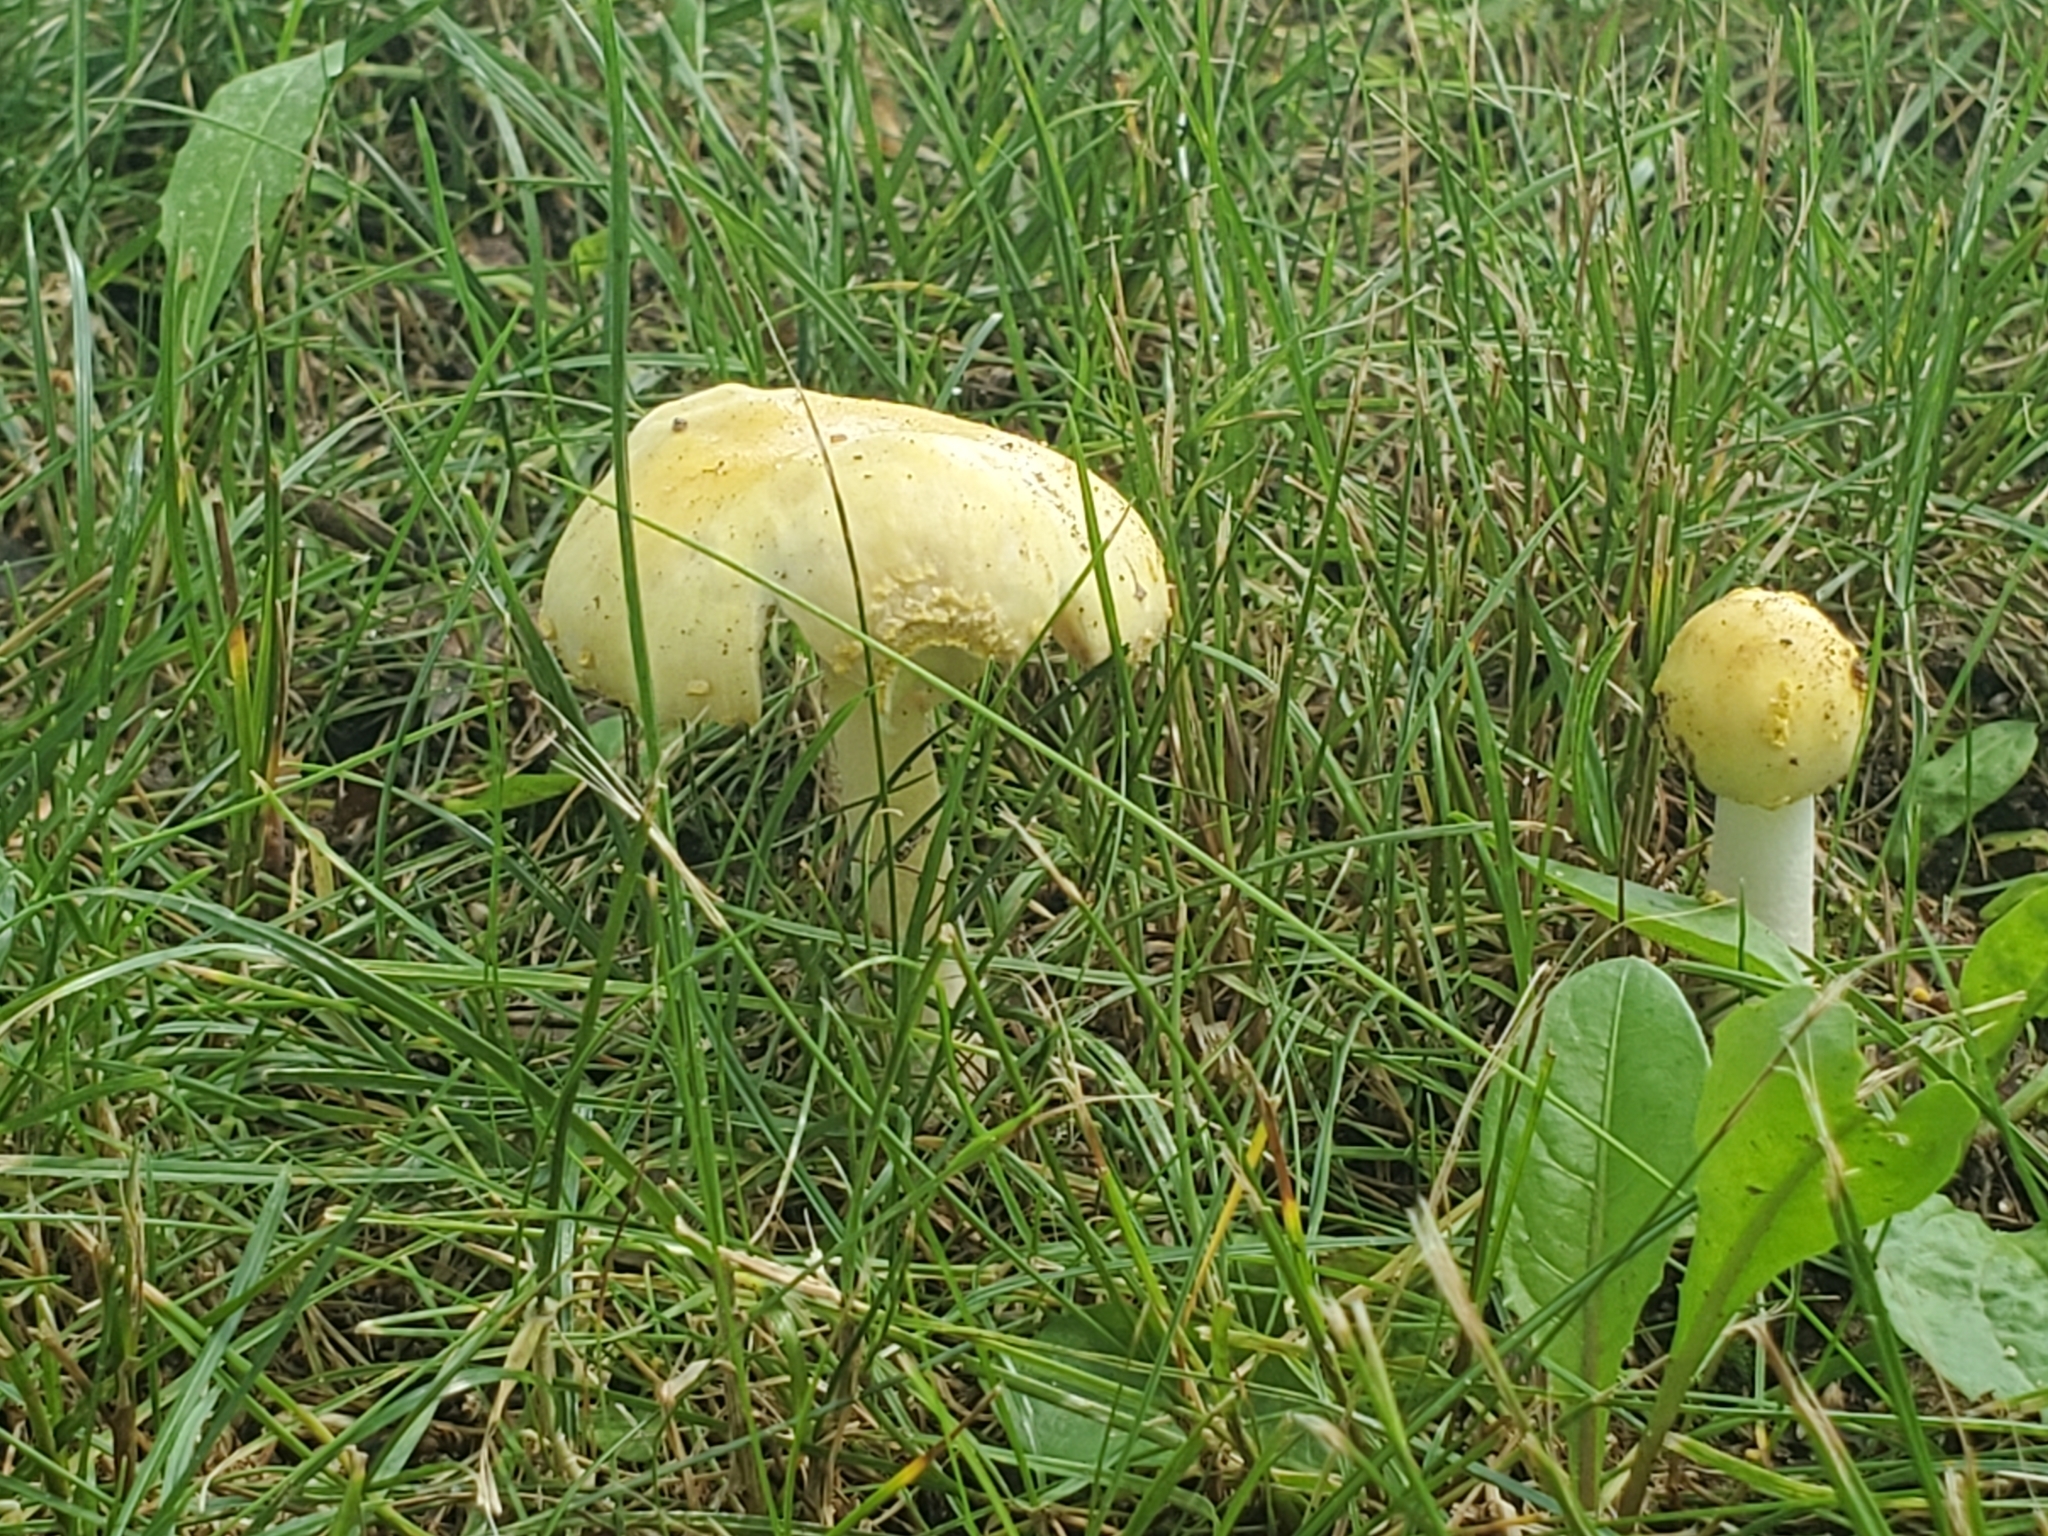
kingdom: Fungi
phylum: Basidiomycota
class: Agaricomycetes
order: Agaricales
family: Amanitaceae
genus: Amanita
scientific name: Amanita flavorubens
